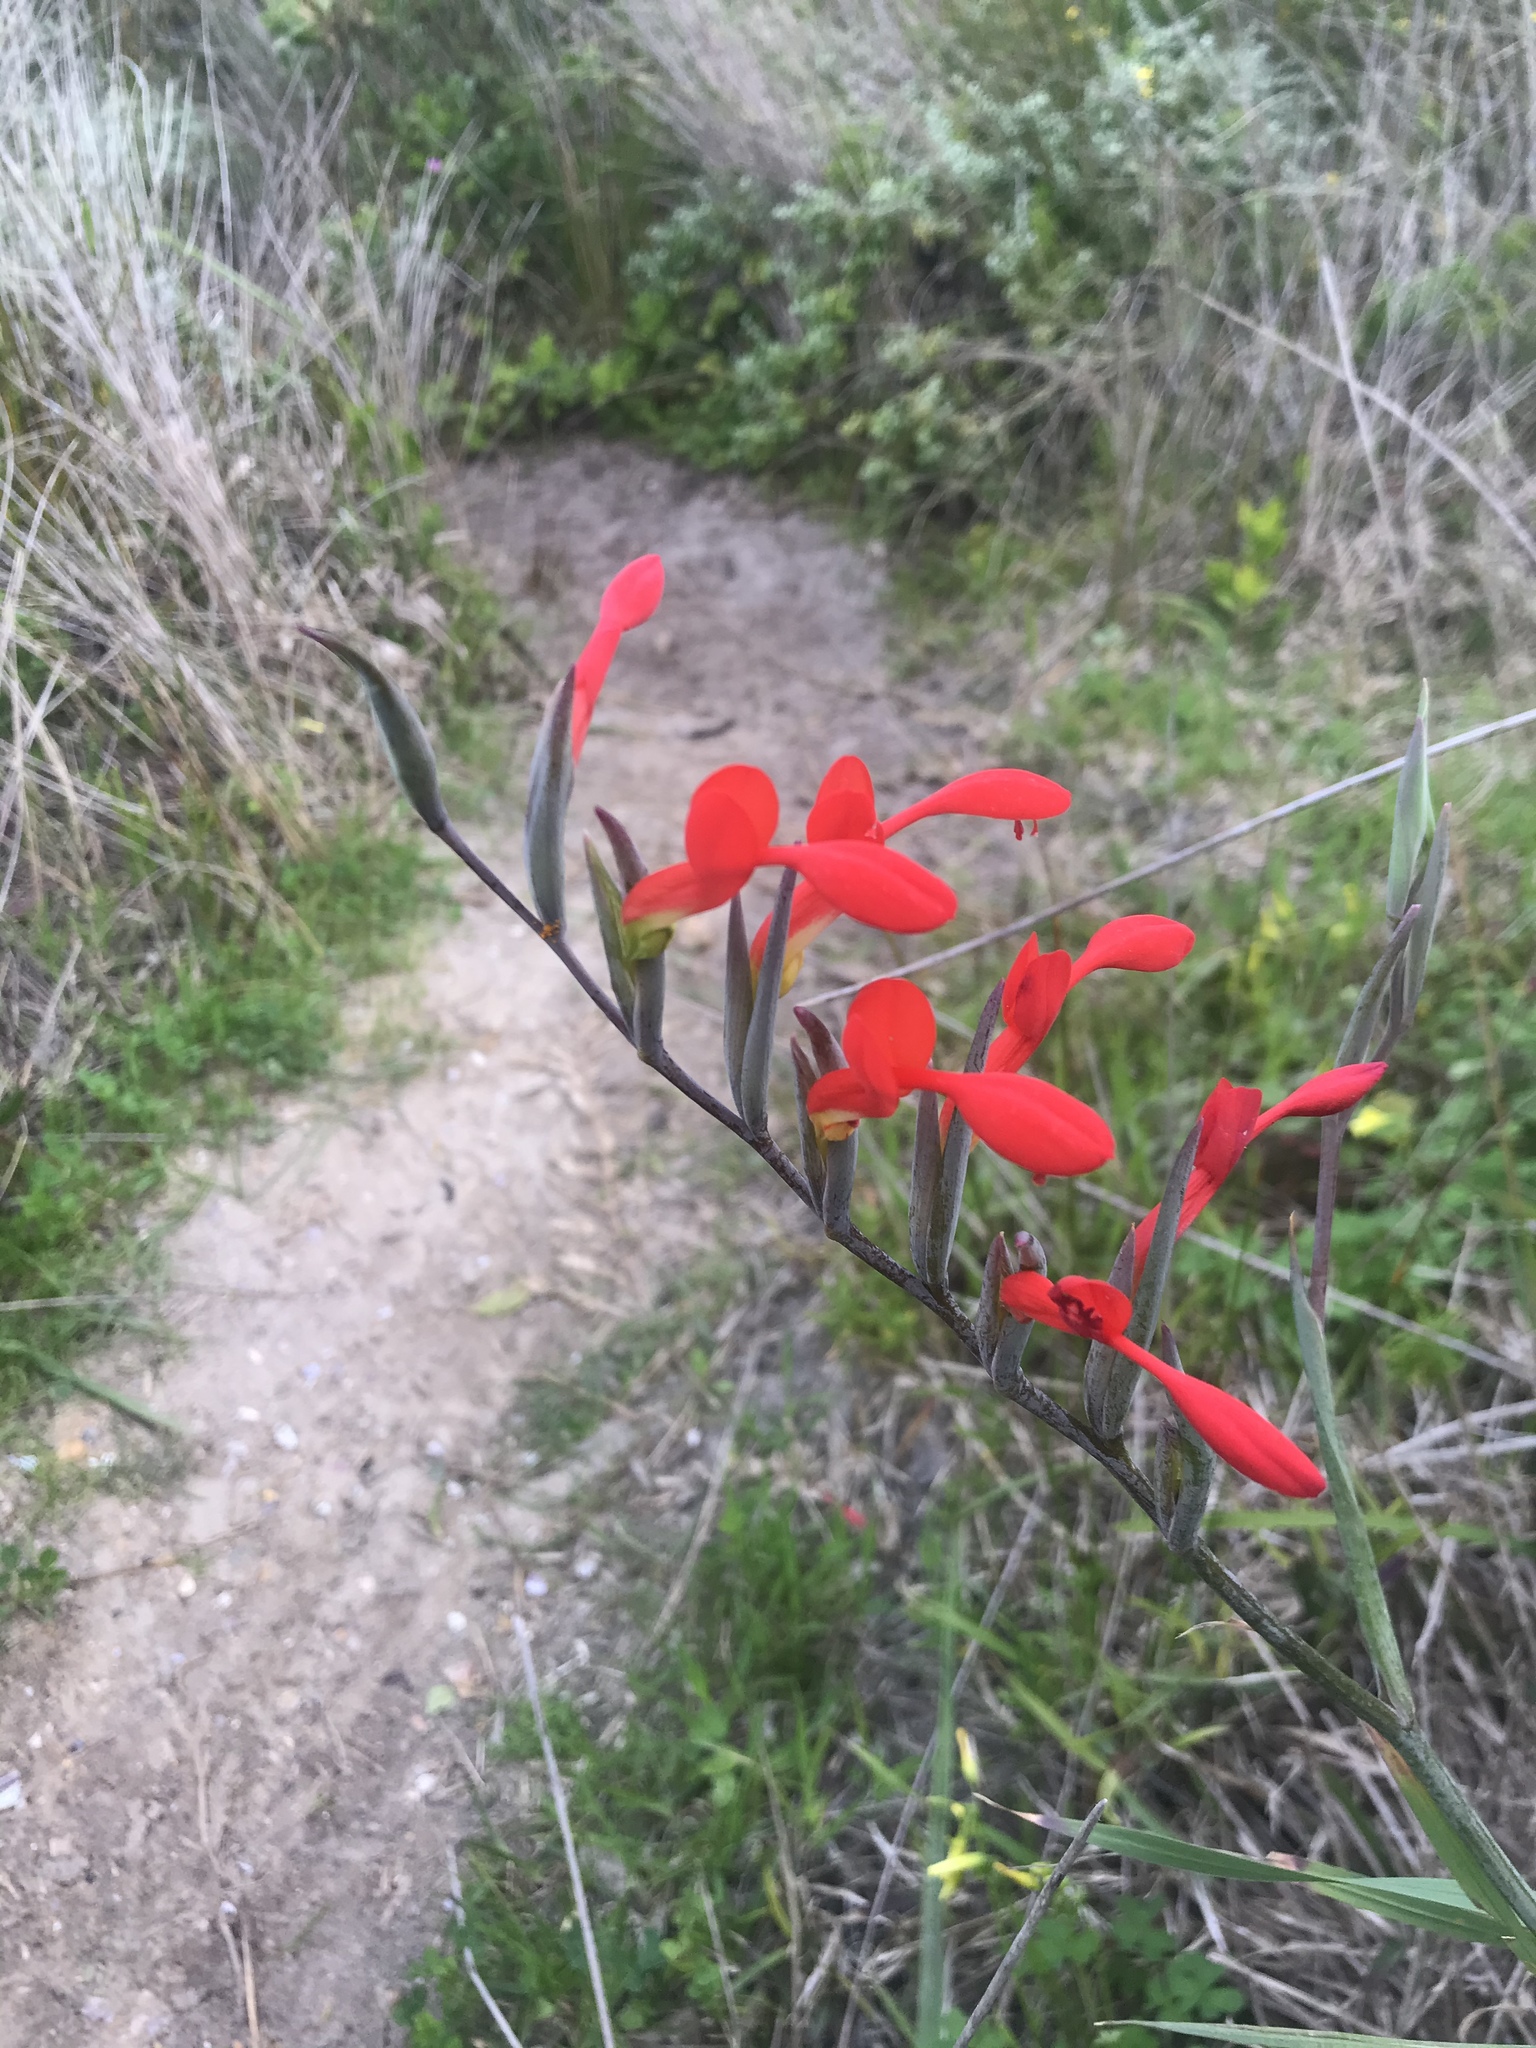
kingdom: Plantae
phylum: Tracheophyta
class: Liliopsida
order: Asparagales
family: Iridaceae
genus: Gladiolus
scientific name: Gladiolus cunonius
